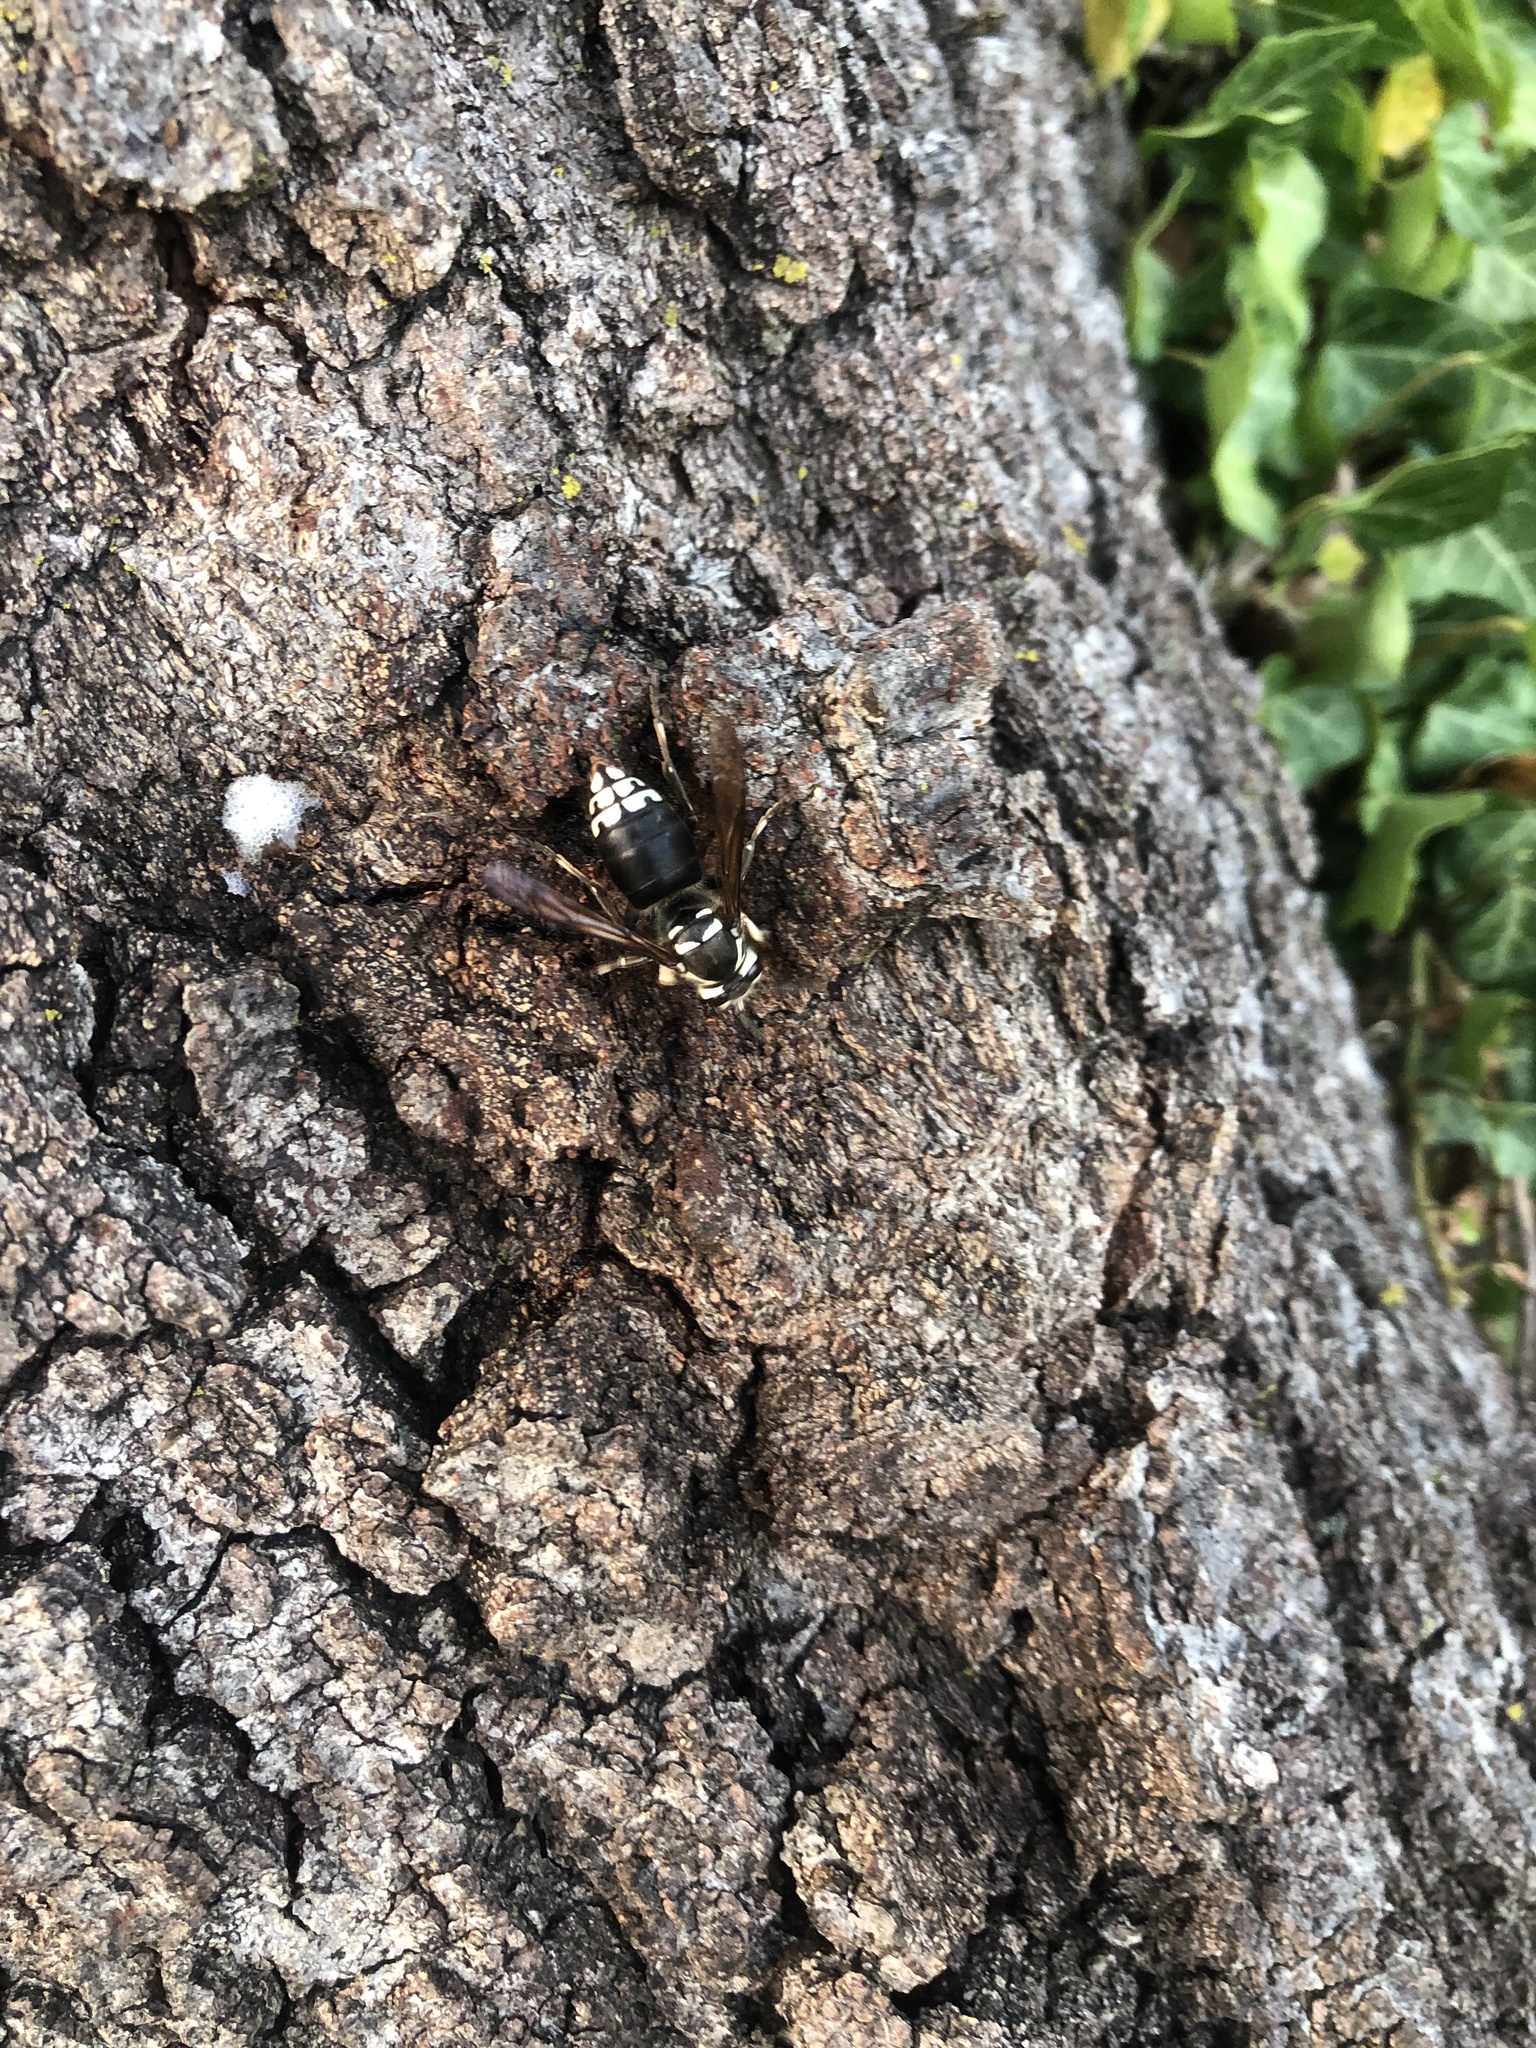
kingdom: Animalia
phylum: Arthropoda
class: Insecta
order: Hymenoptera
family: Vespidae
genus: Dolichovespula
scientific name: Dolichovespula maculata
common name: Bald-faced hornet
